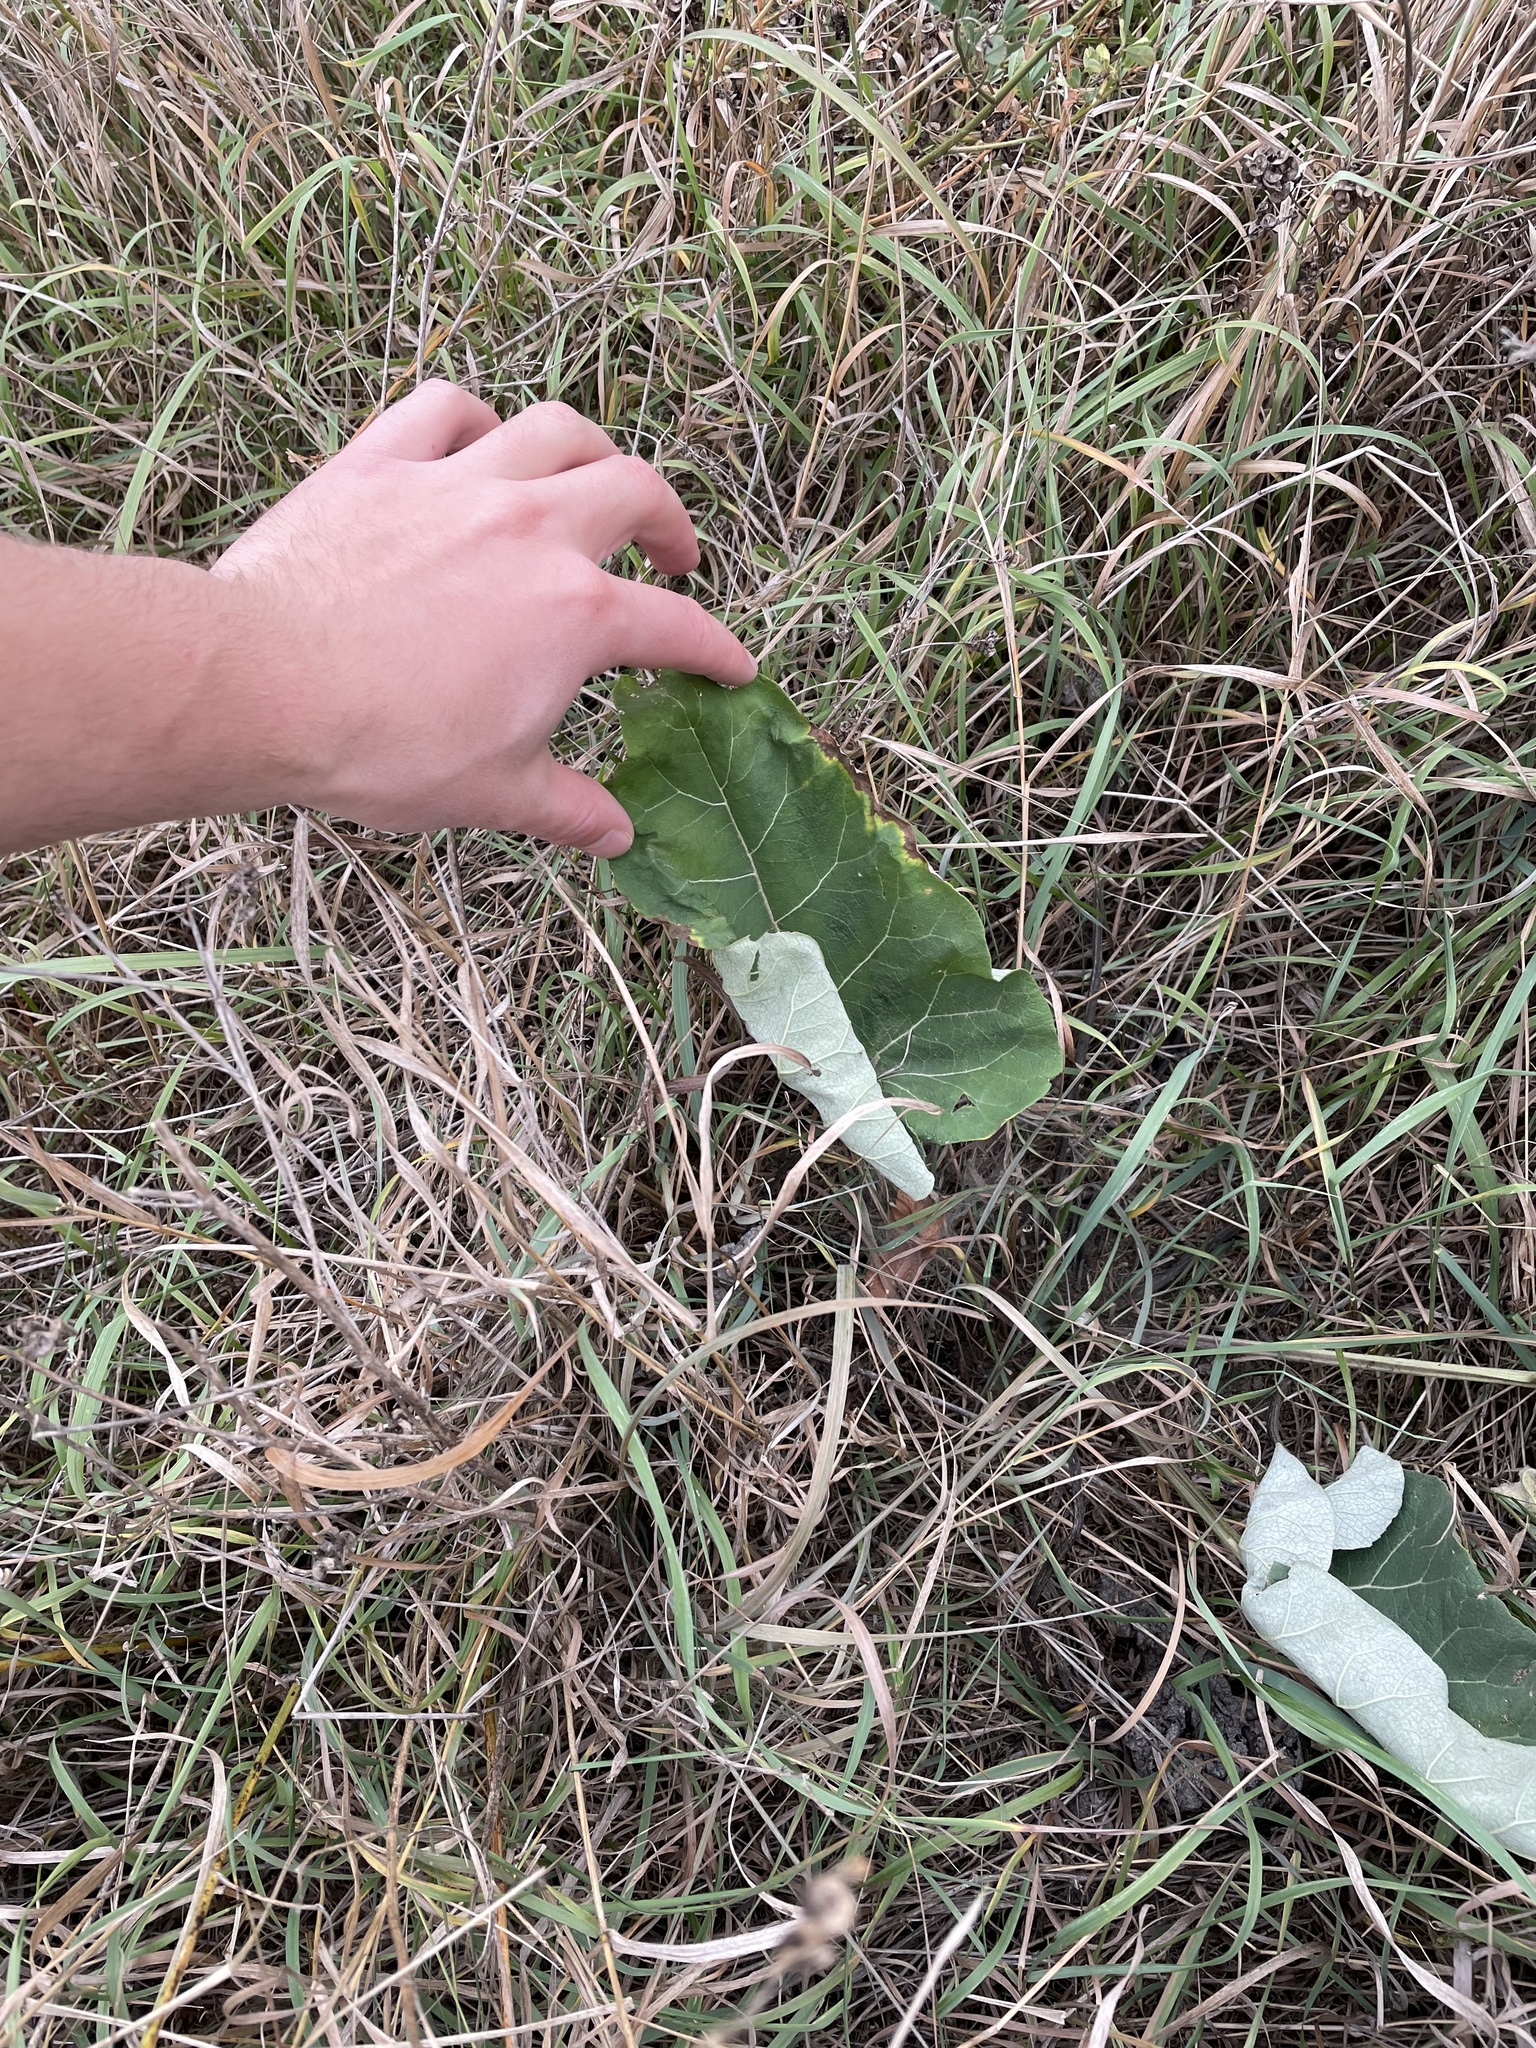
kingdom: Plantae
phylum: Tracheophyta
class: Magnoliopsida
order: Asterales
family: Asteraceae
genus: Petasites
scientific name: Petasites frigidus
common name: Arctic butterbur
